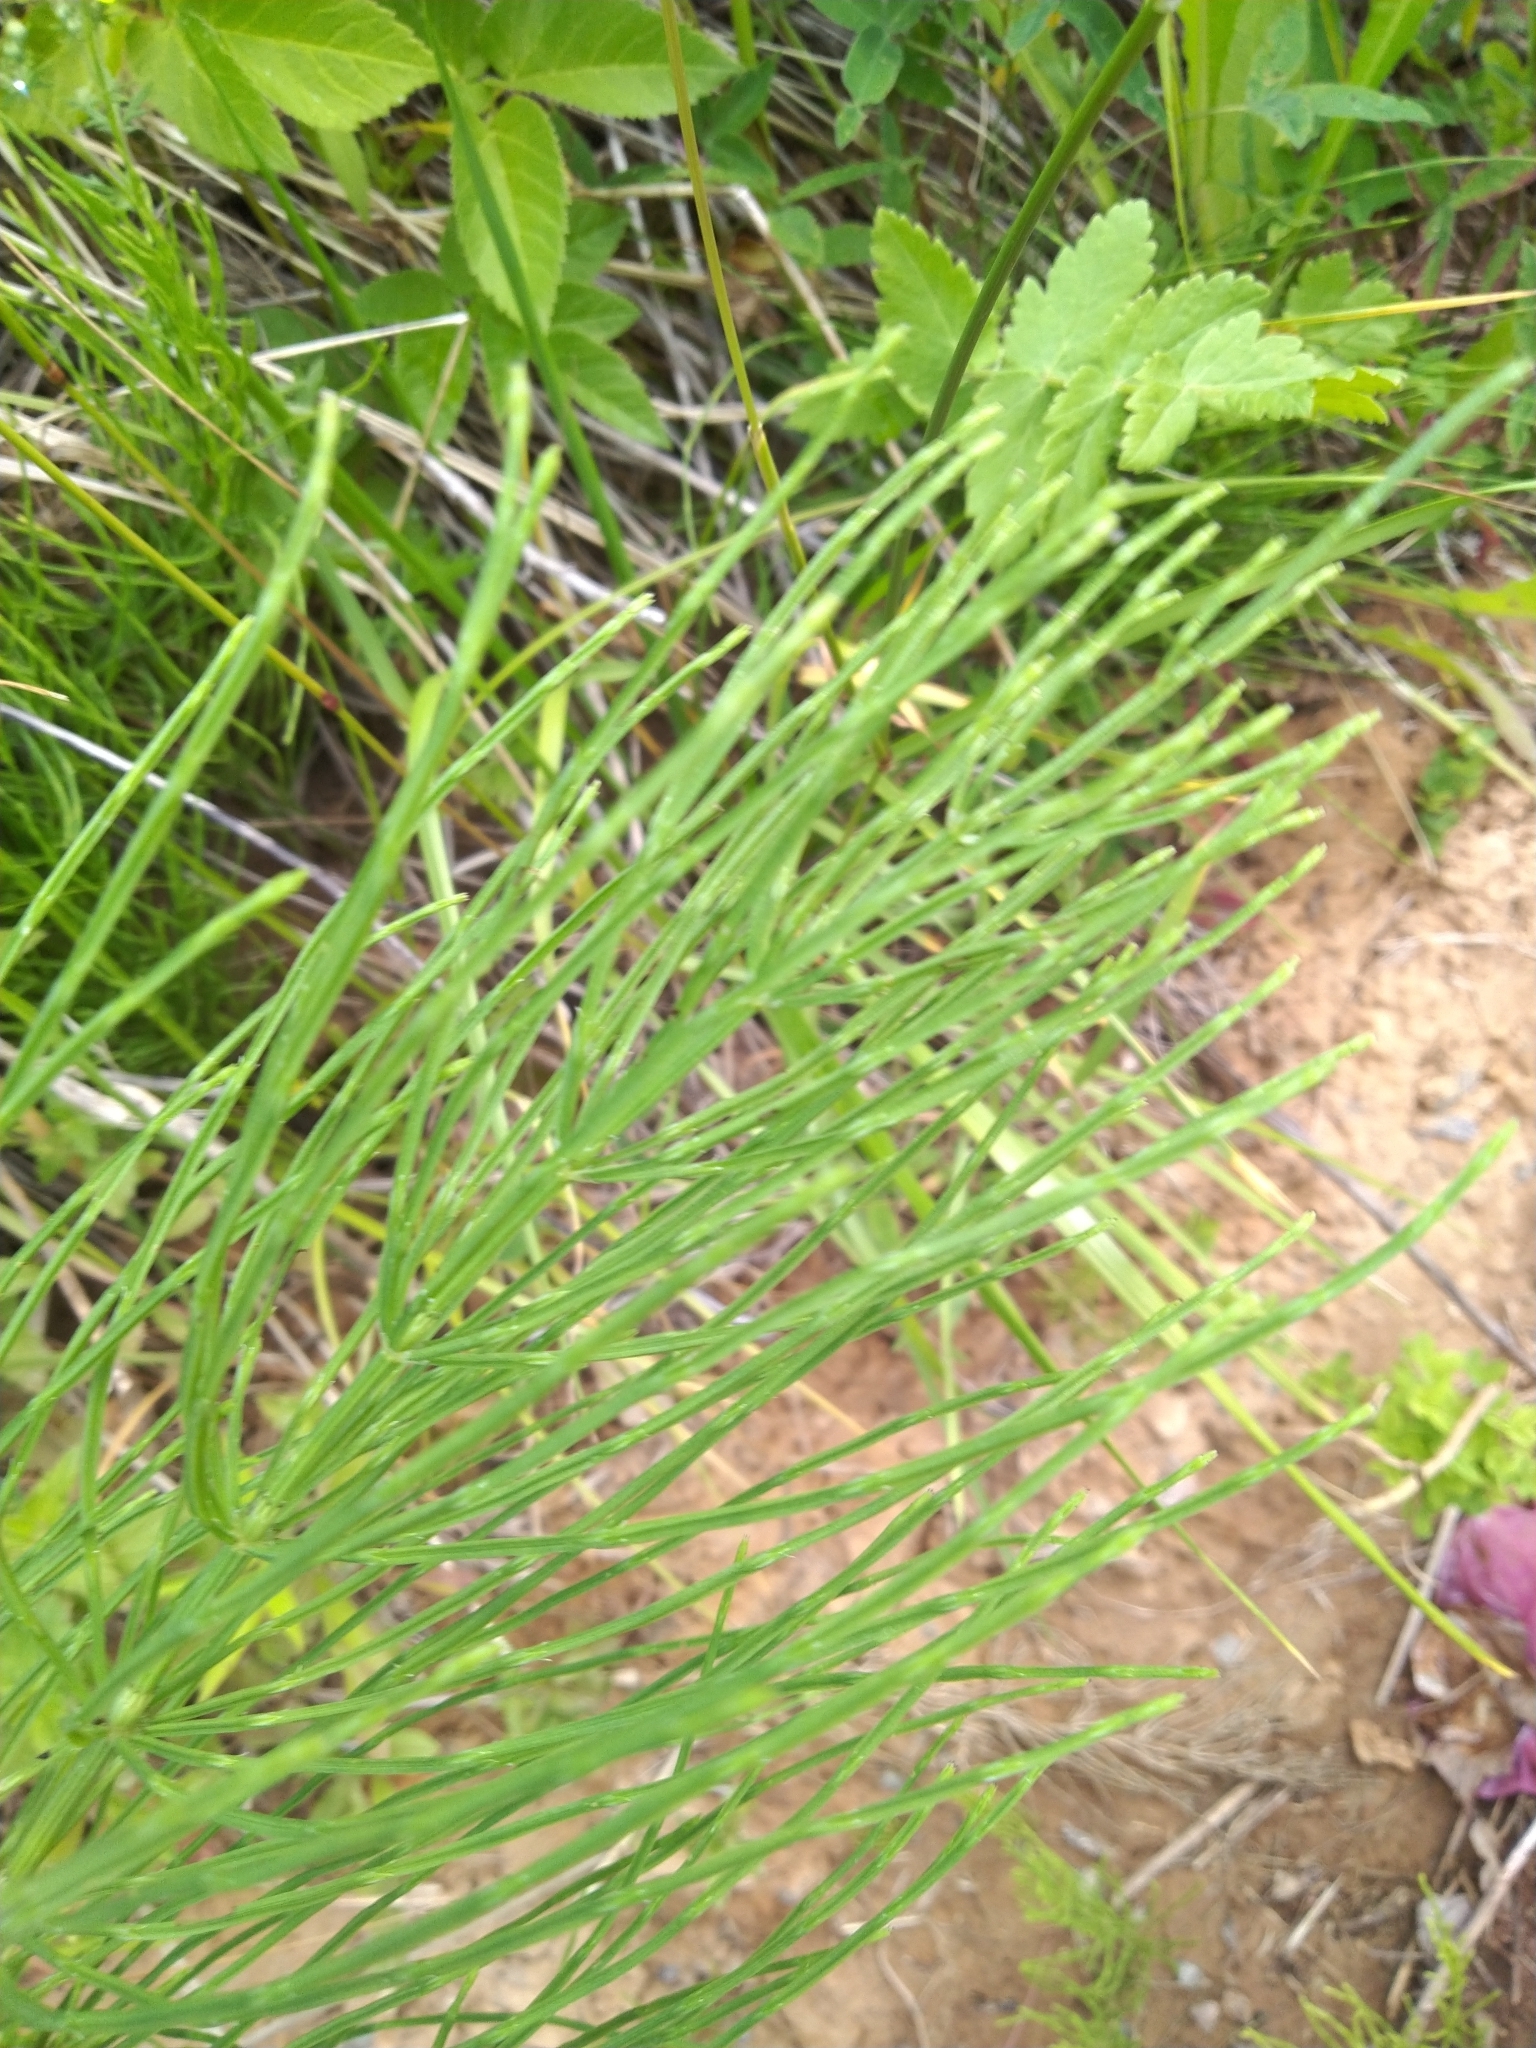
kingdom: Plantae
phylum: Tracheophyta
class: Polypodiopsida
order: Equisetales
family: Equisetaceae
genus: Equisetum
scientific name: Equisetum arvense
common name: Field horsetail
